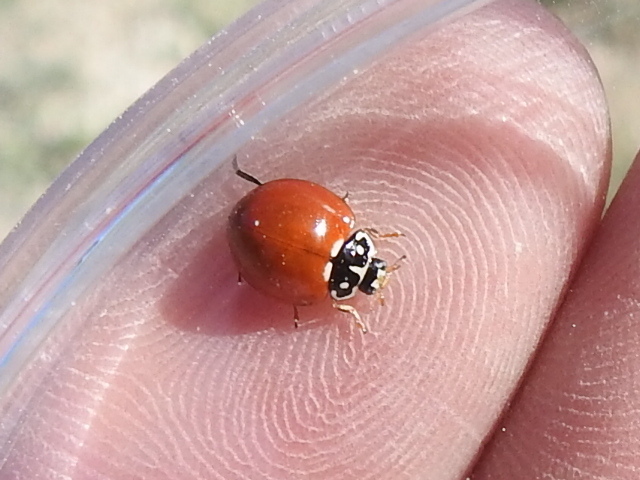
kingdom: Animalia
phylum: Arthropoda
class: Insecta
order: Coleoptera
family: Coccinellidae
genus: Cycloneda
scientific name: Cycloneda sanguinea
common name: Ladybird beetle
